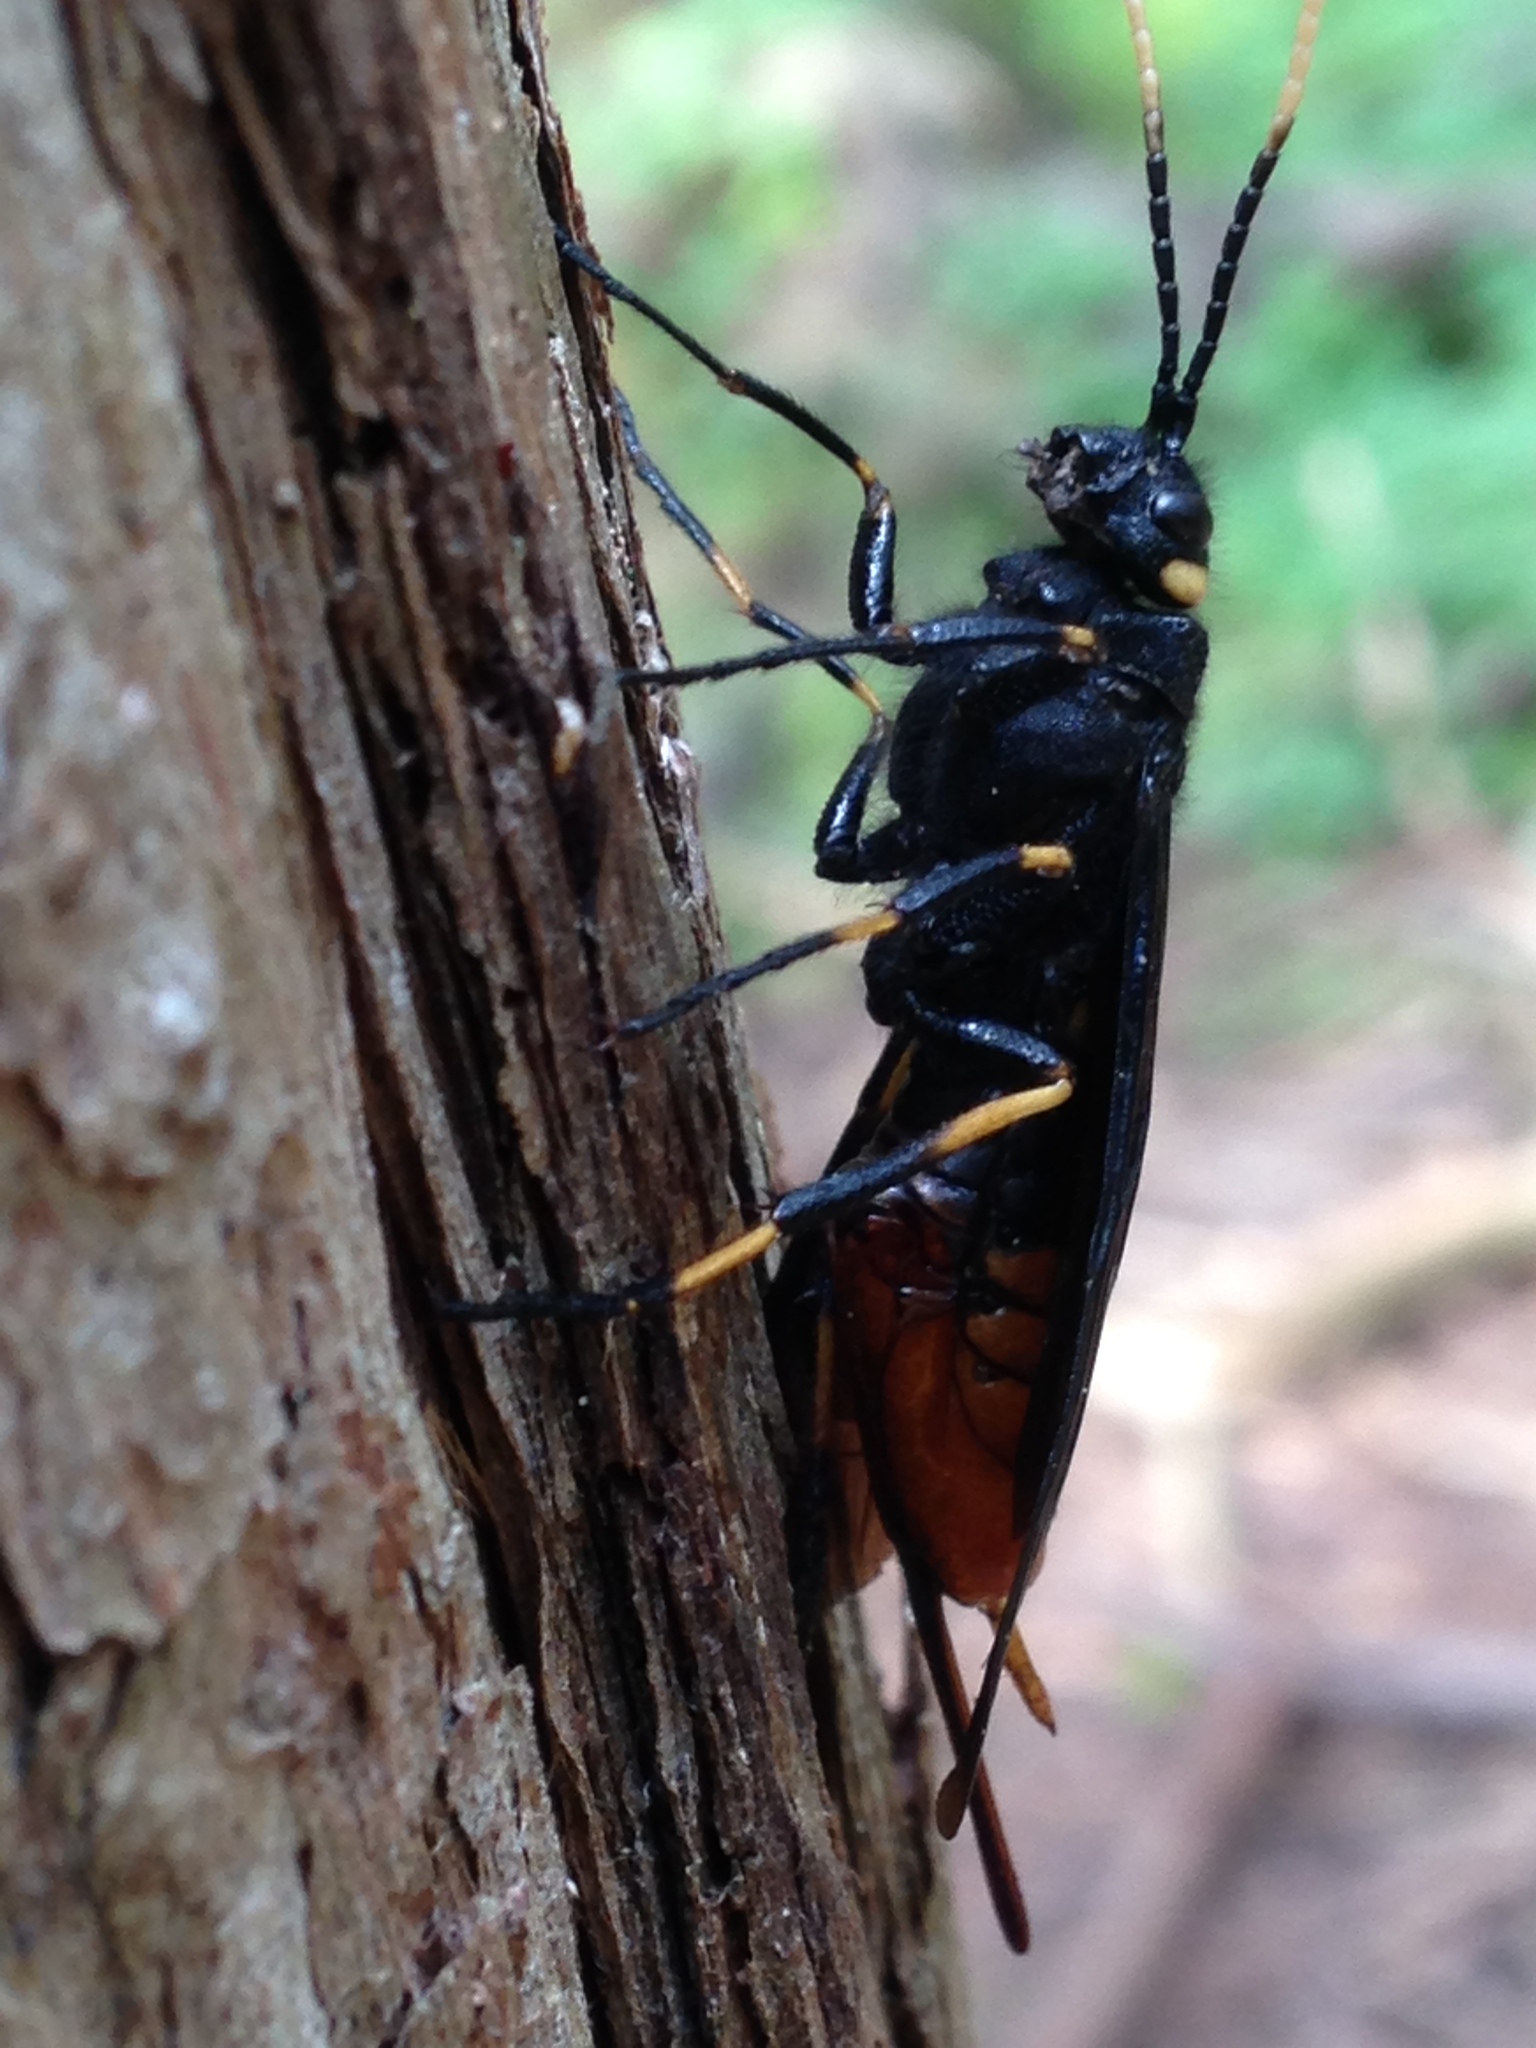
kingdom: Animalia
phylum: Arthropoda
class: Insecta
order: Hymenoptera
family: Siricidae
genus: Urocerus
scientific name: Urocerus cressoni
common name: Black-and-red horntail
